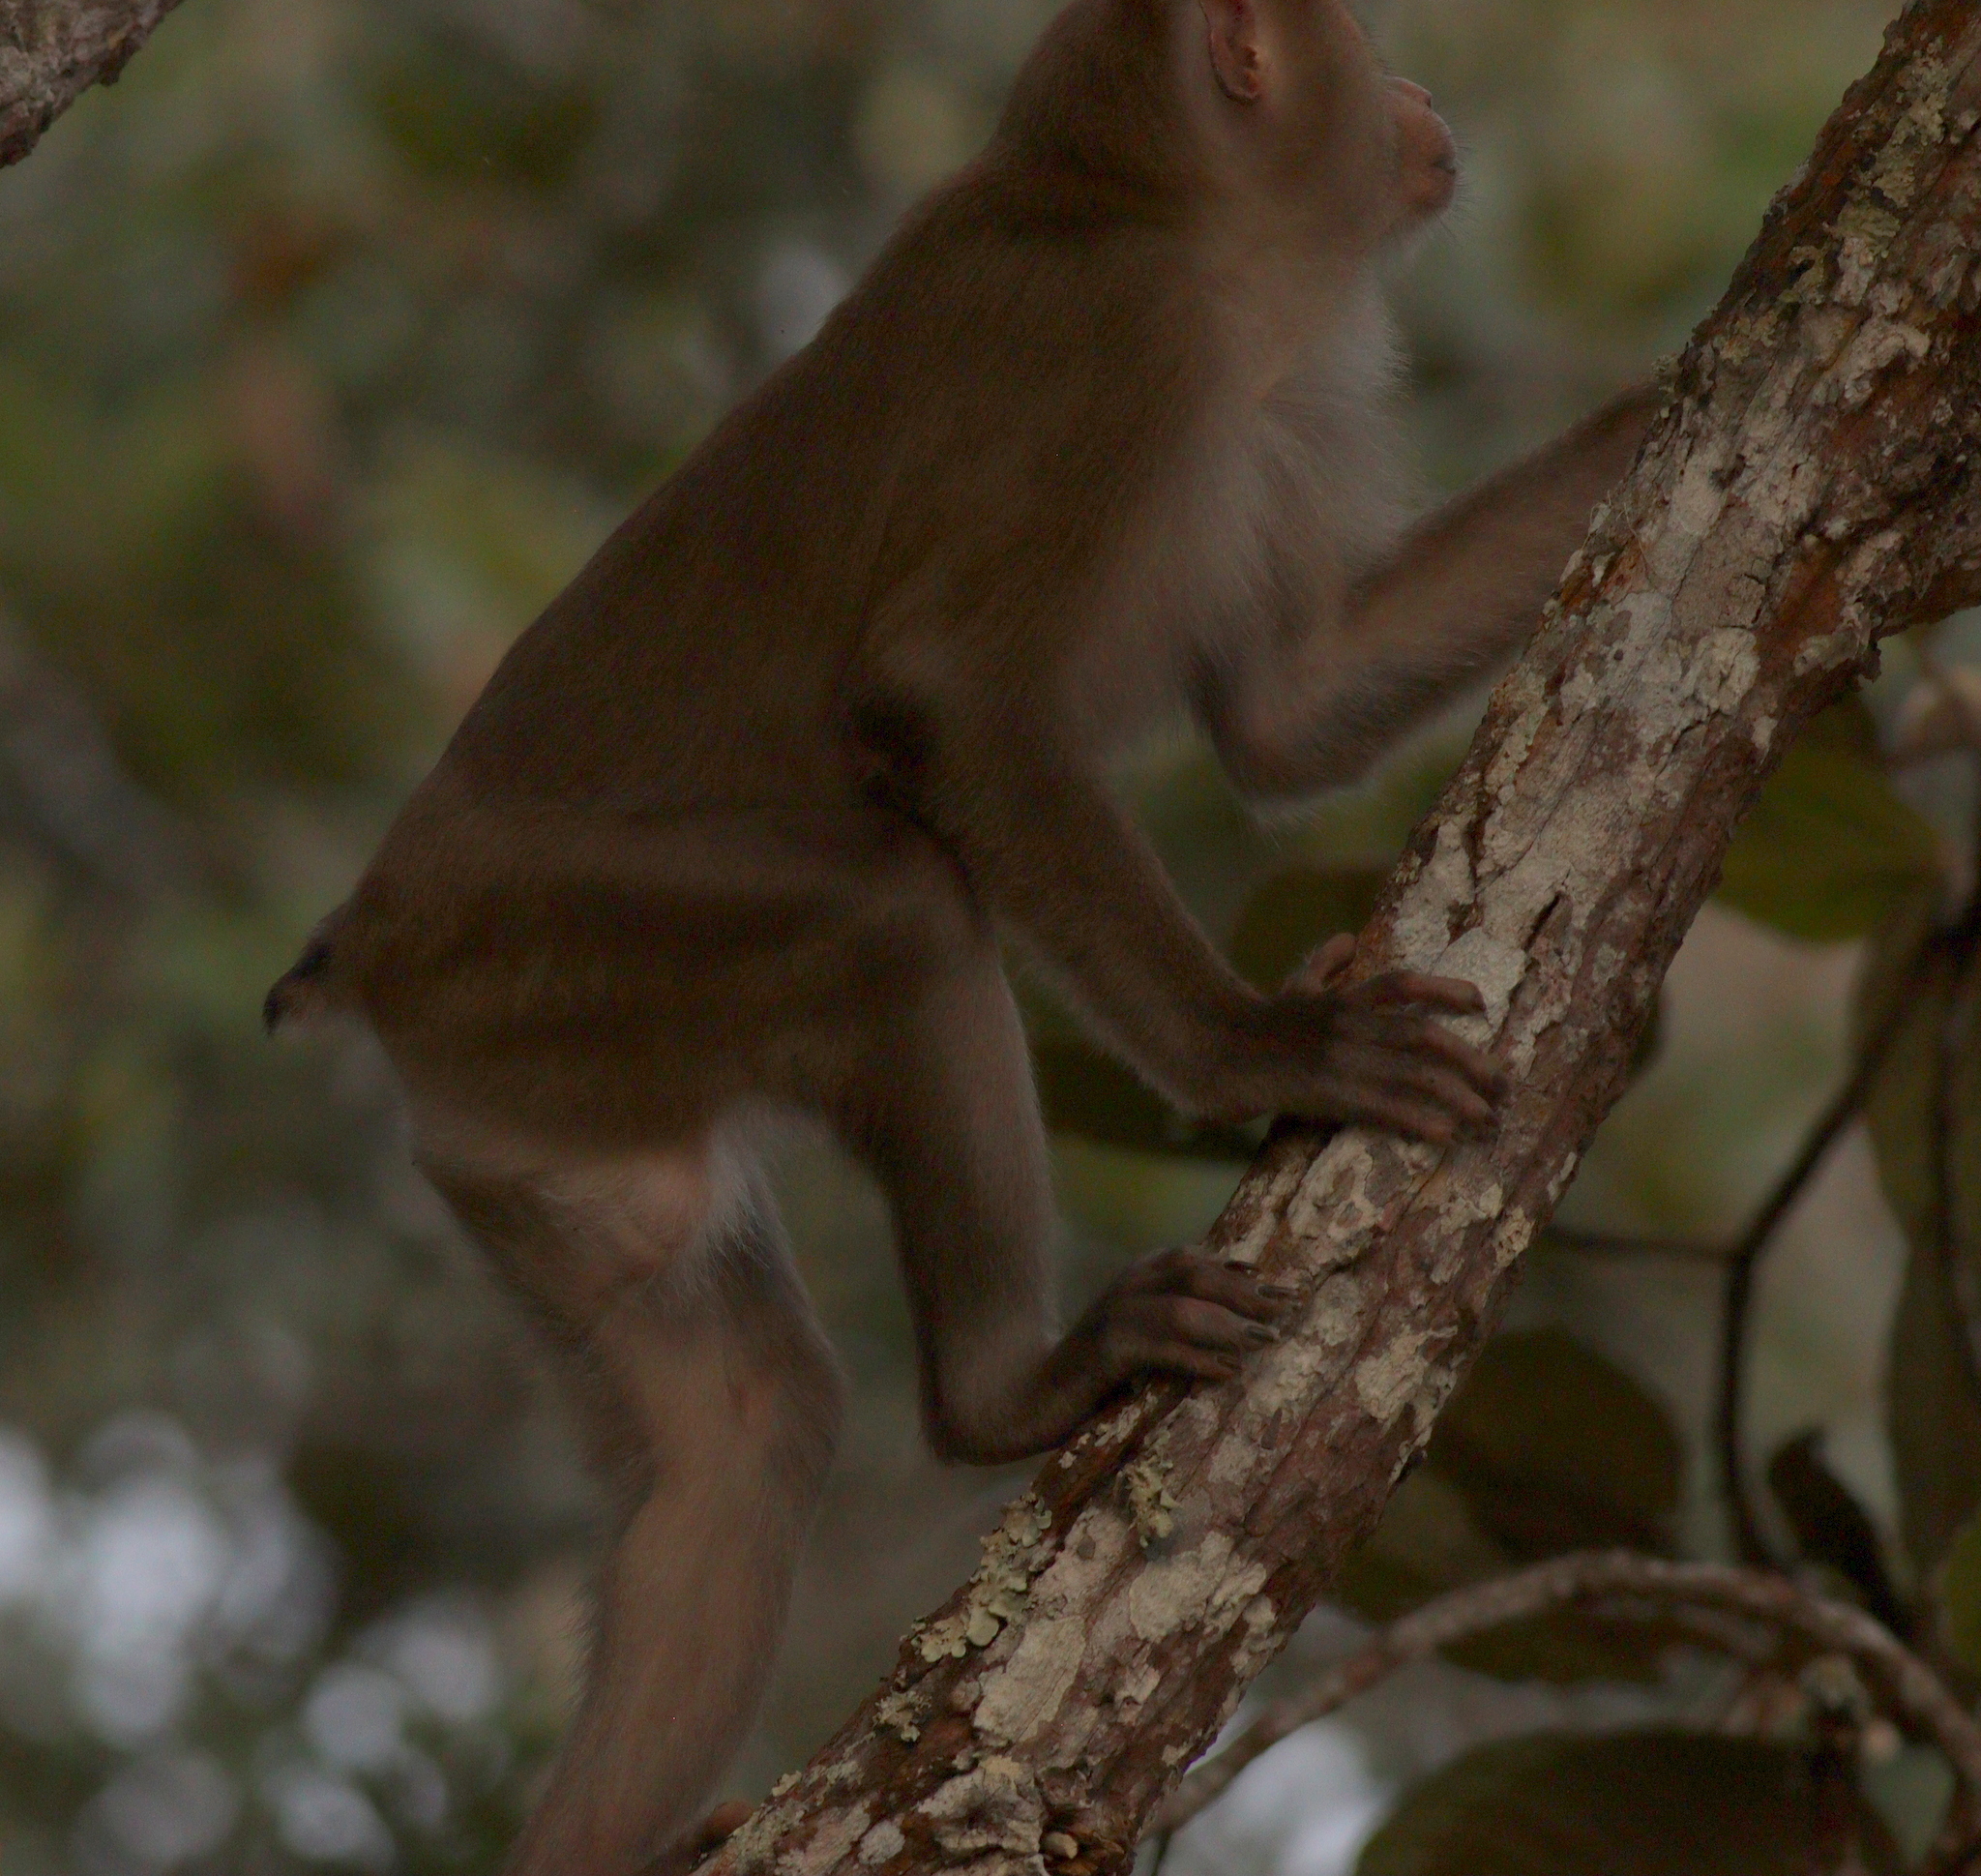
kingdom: Animalia
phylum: Chordata
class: Mammalia
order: Primates
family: Cercopithecidae
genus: Macaca
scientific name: Macaca leonina
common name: Northern pig-tailed macaque
